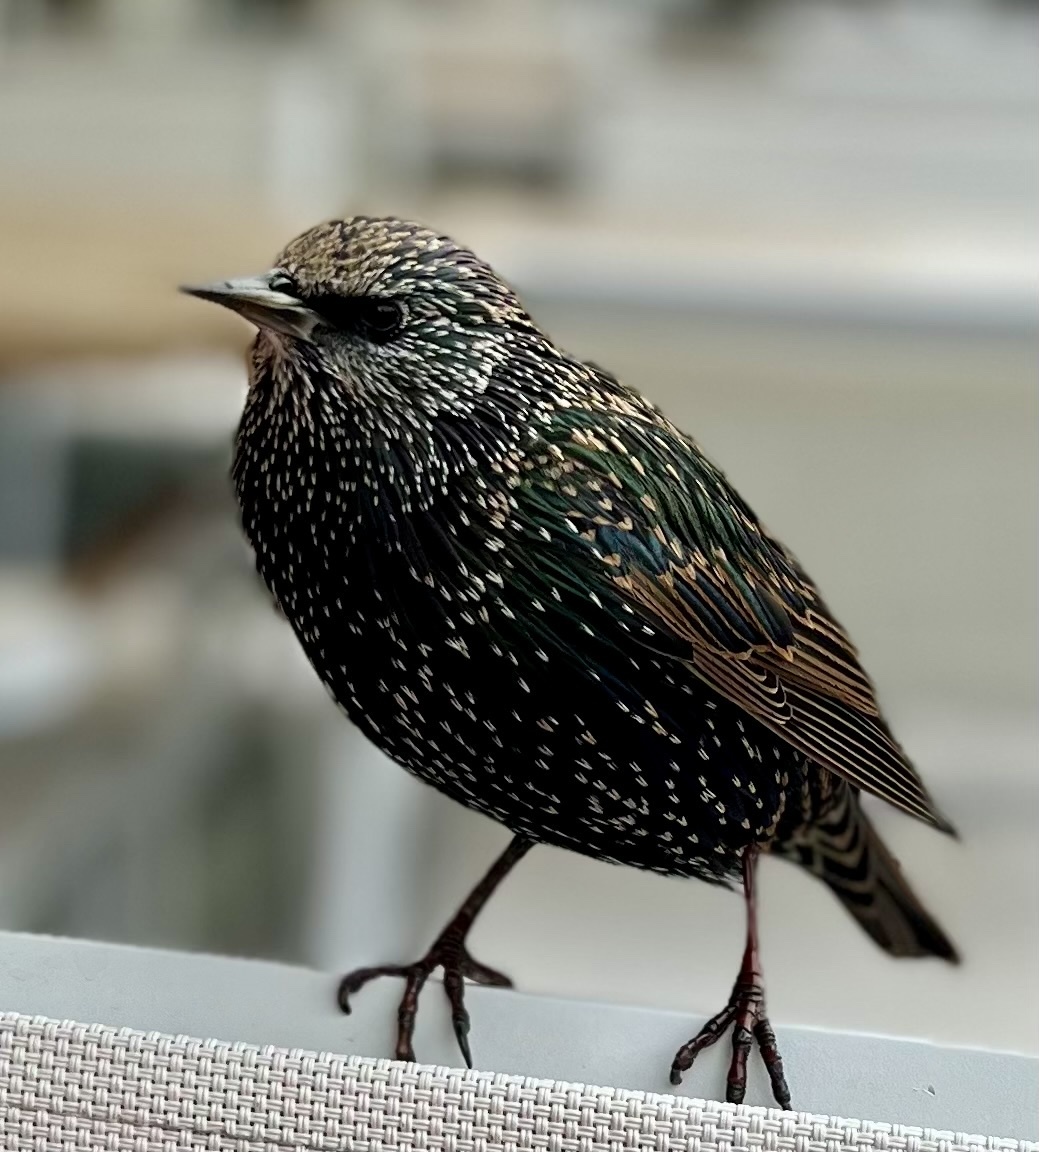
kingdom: Animalia
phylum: Chordata
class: Aves
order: Passeriformes
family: Sturnidae
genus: Sturnus
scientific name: Sturnus vulgaris
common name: Common starling
